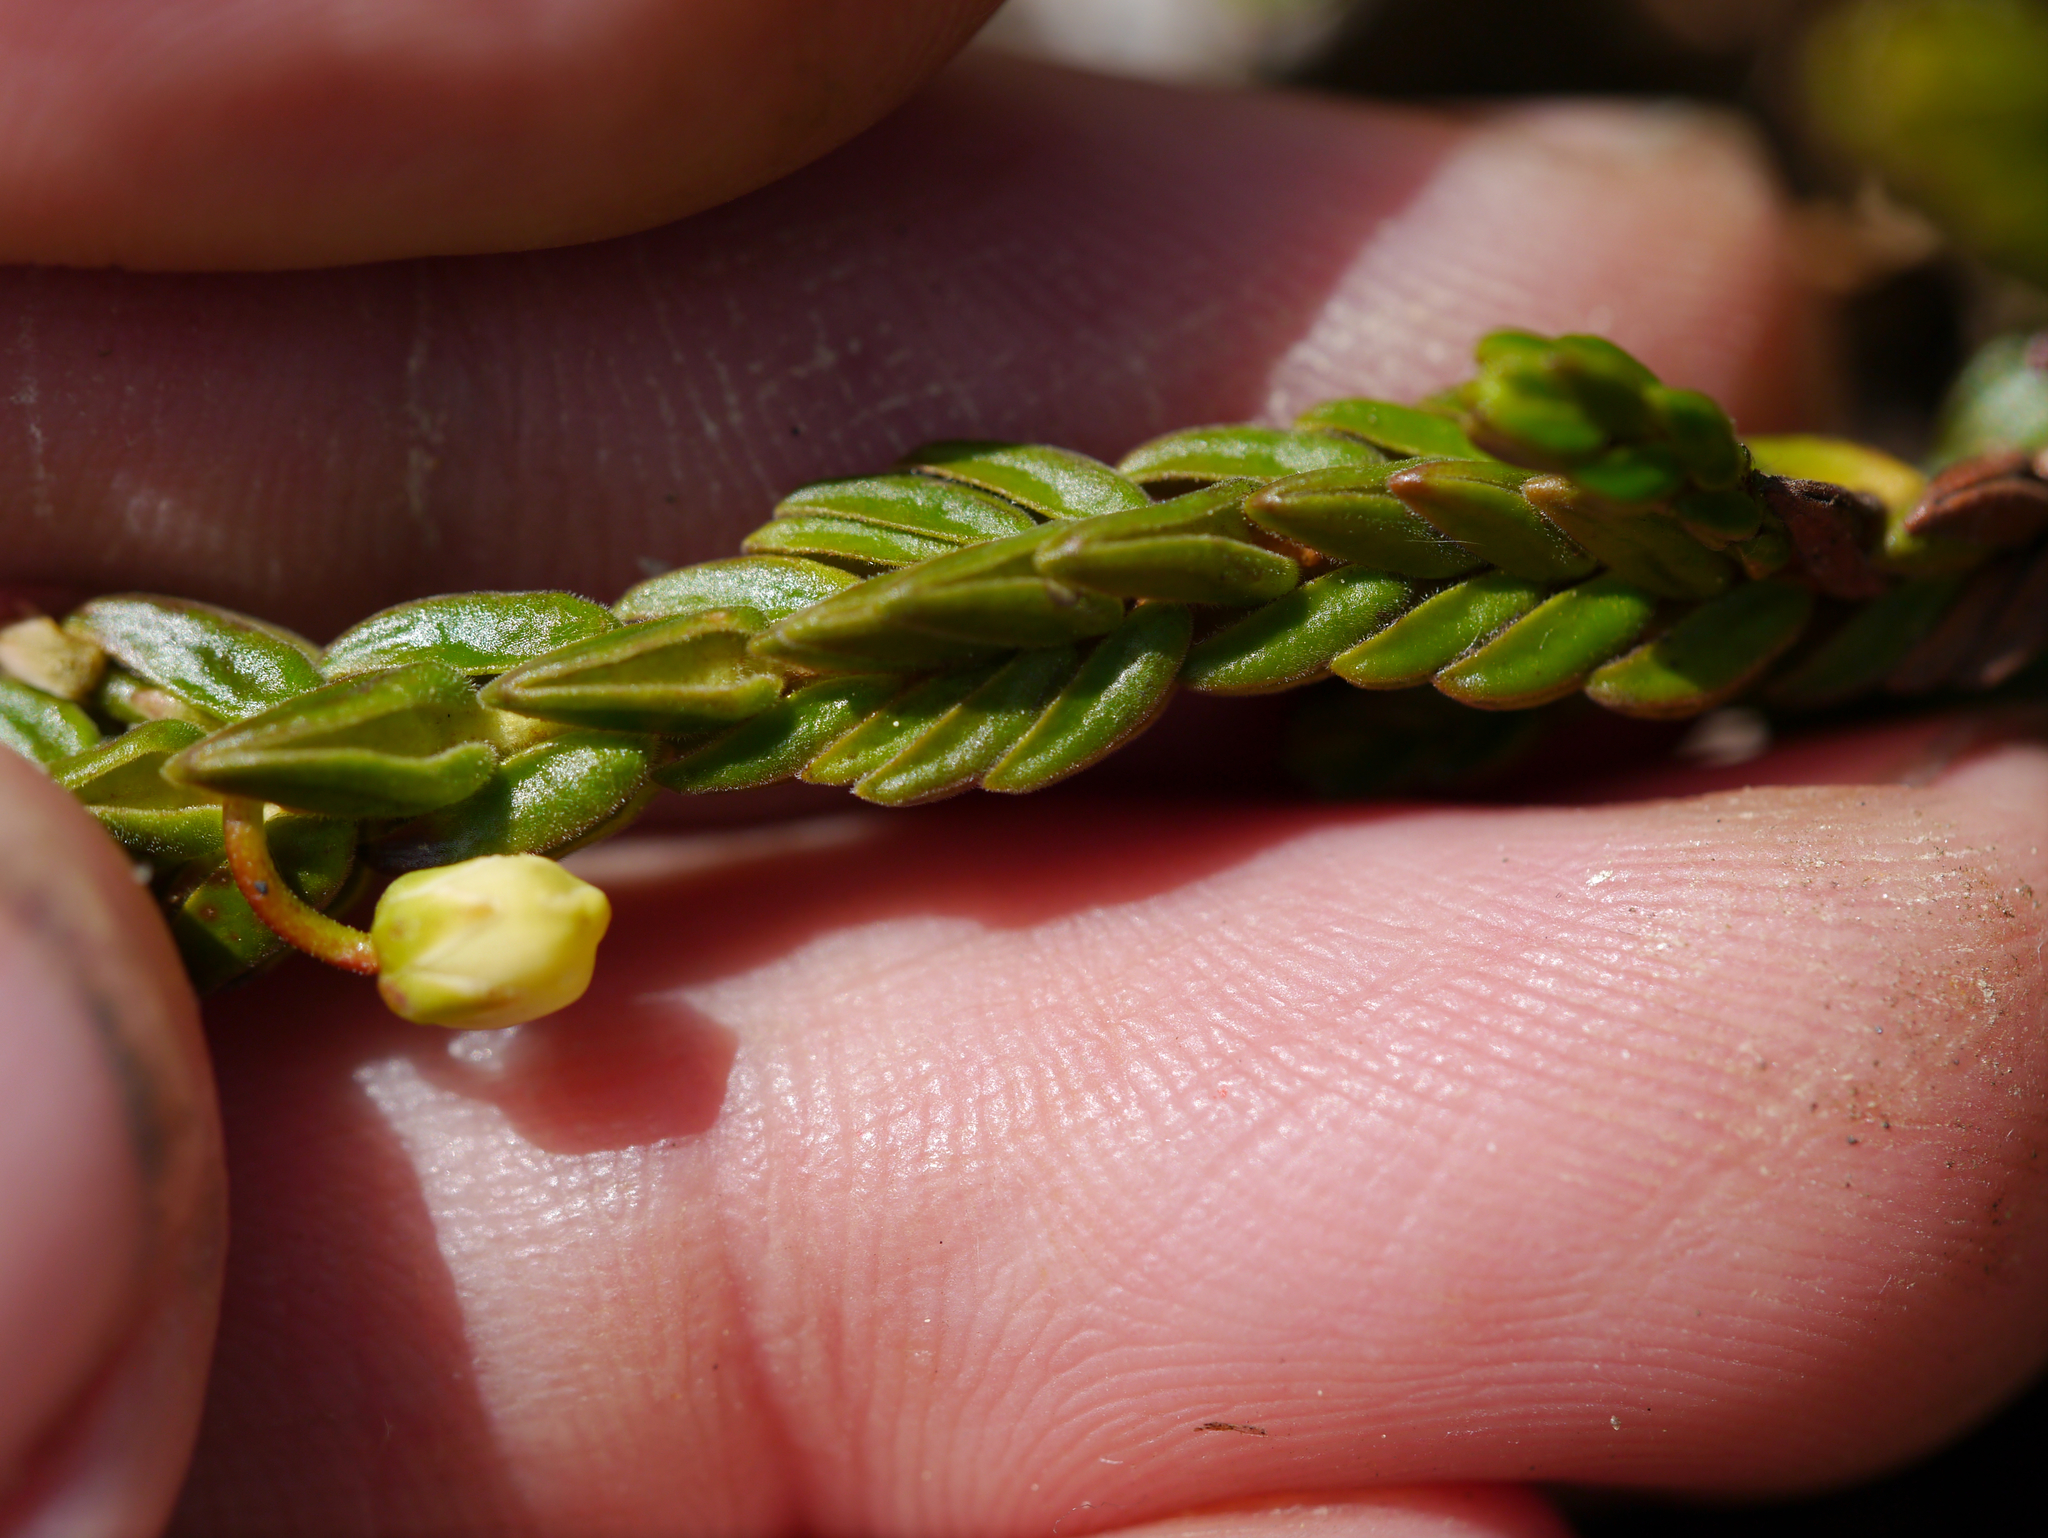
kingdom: Plantae
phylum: Tracheophyta
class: Magnoliopsida
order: Ericales
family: Ericaceae
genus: Cassiope
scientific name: Cassiope tetragona
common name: Arctic bell heather
